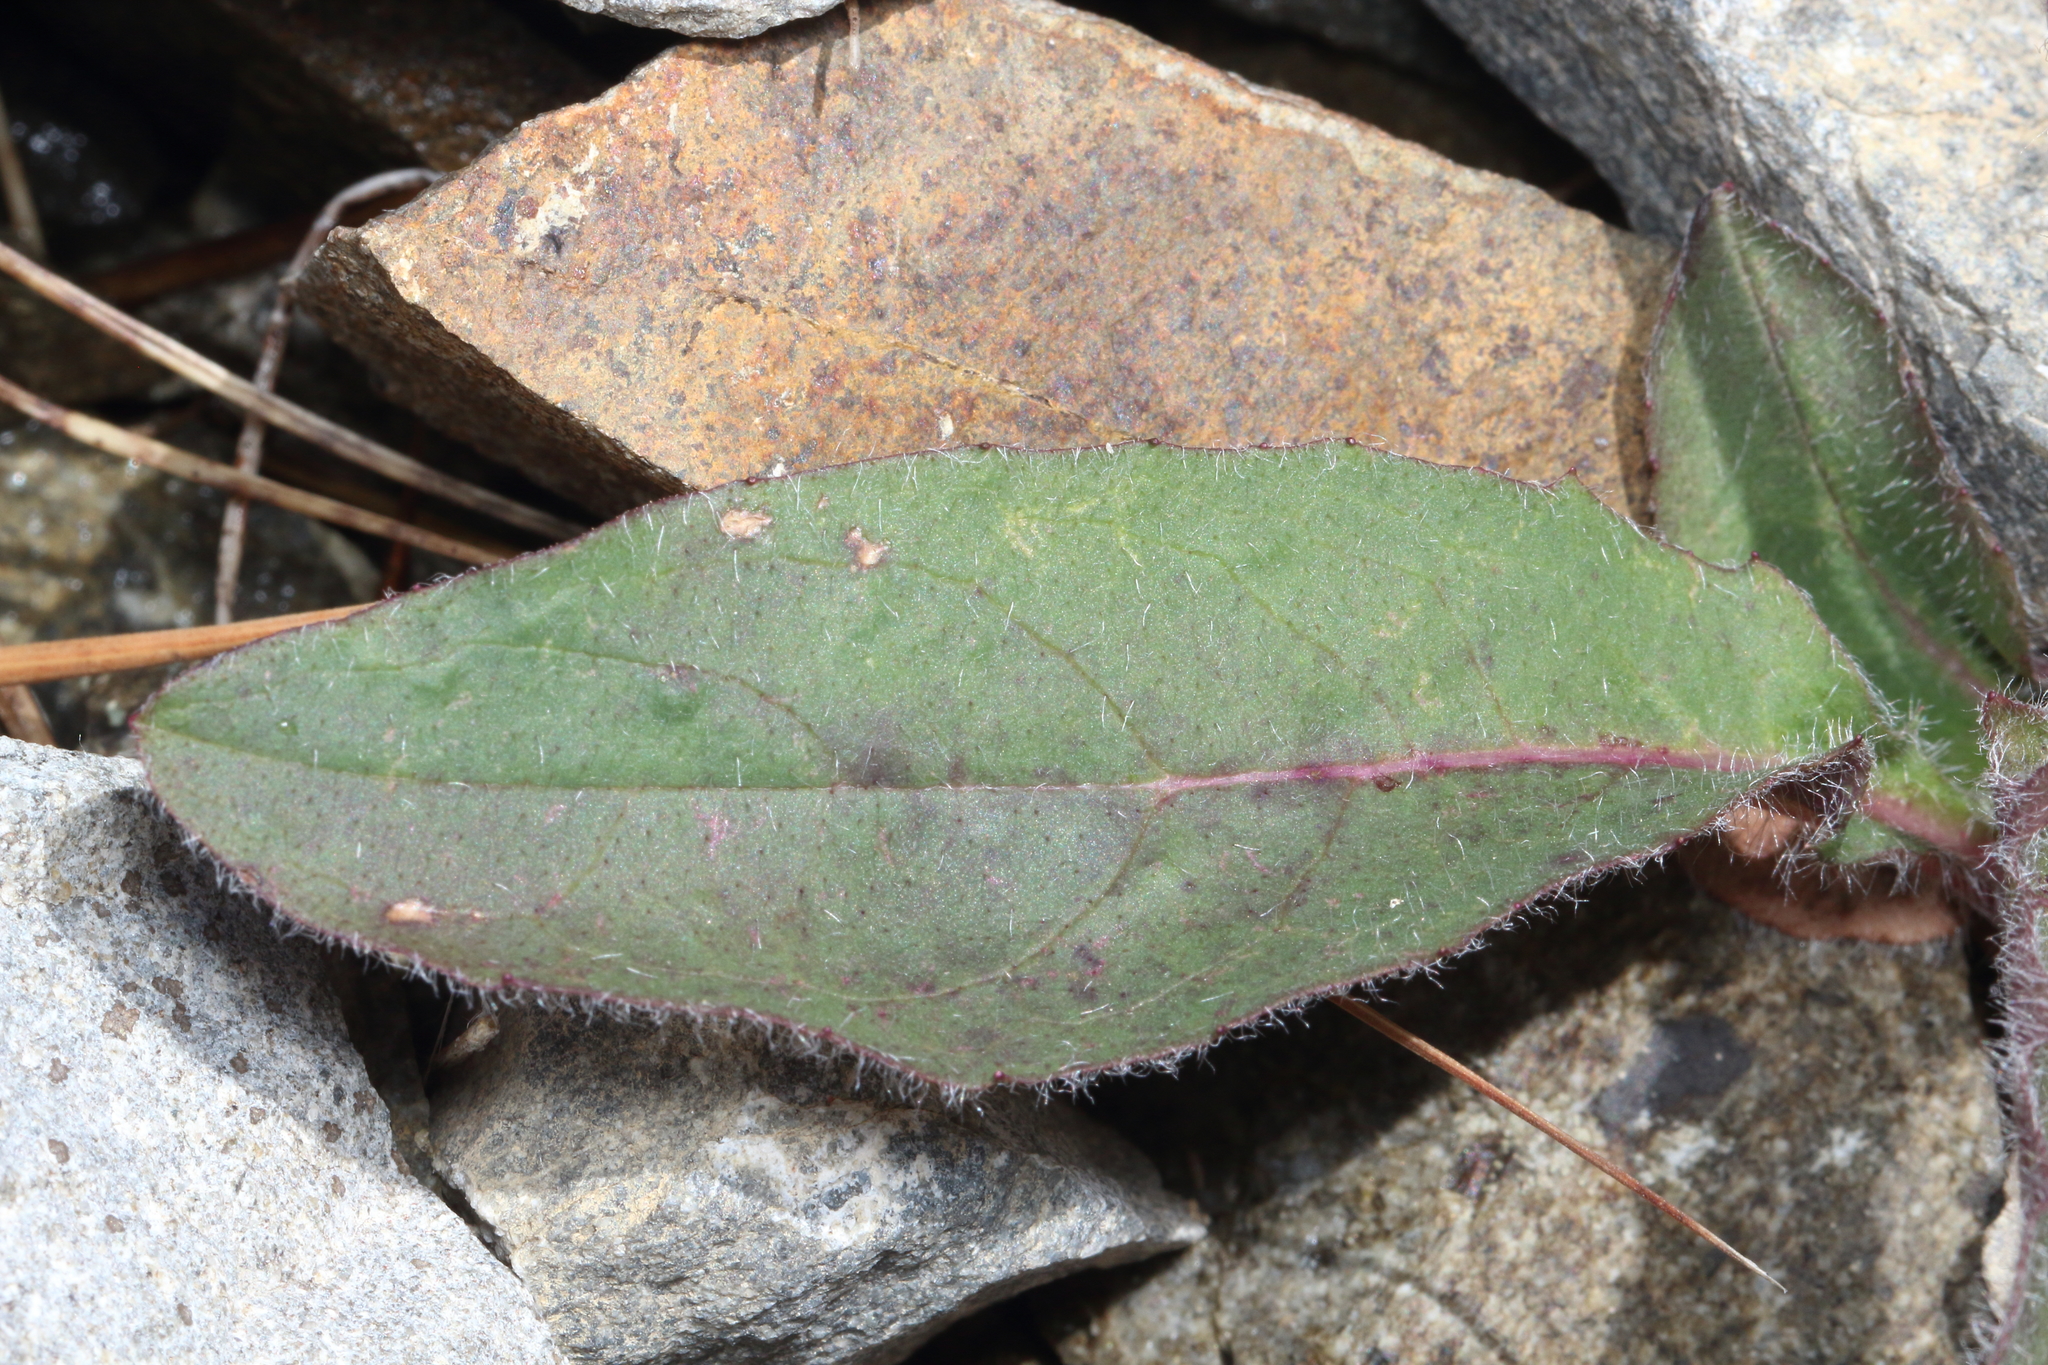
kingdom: Plantae
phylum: Tracheophyta
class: Magnoliopsida
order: Asterales
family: Asteraceae
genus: Hieracium
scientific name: Hieracium lepidulum
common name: Irregular-toothed hawkweed
